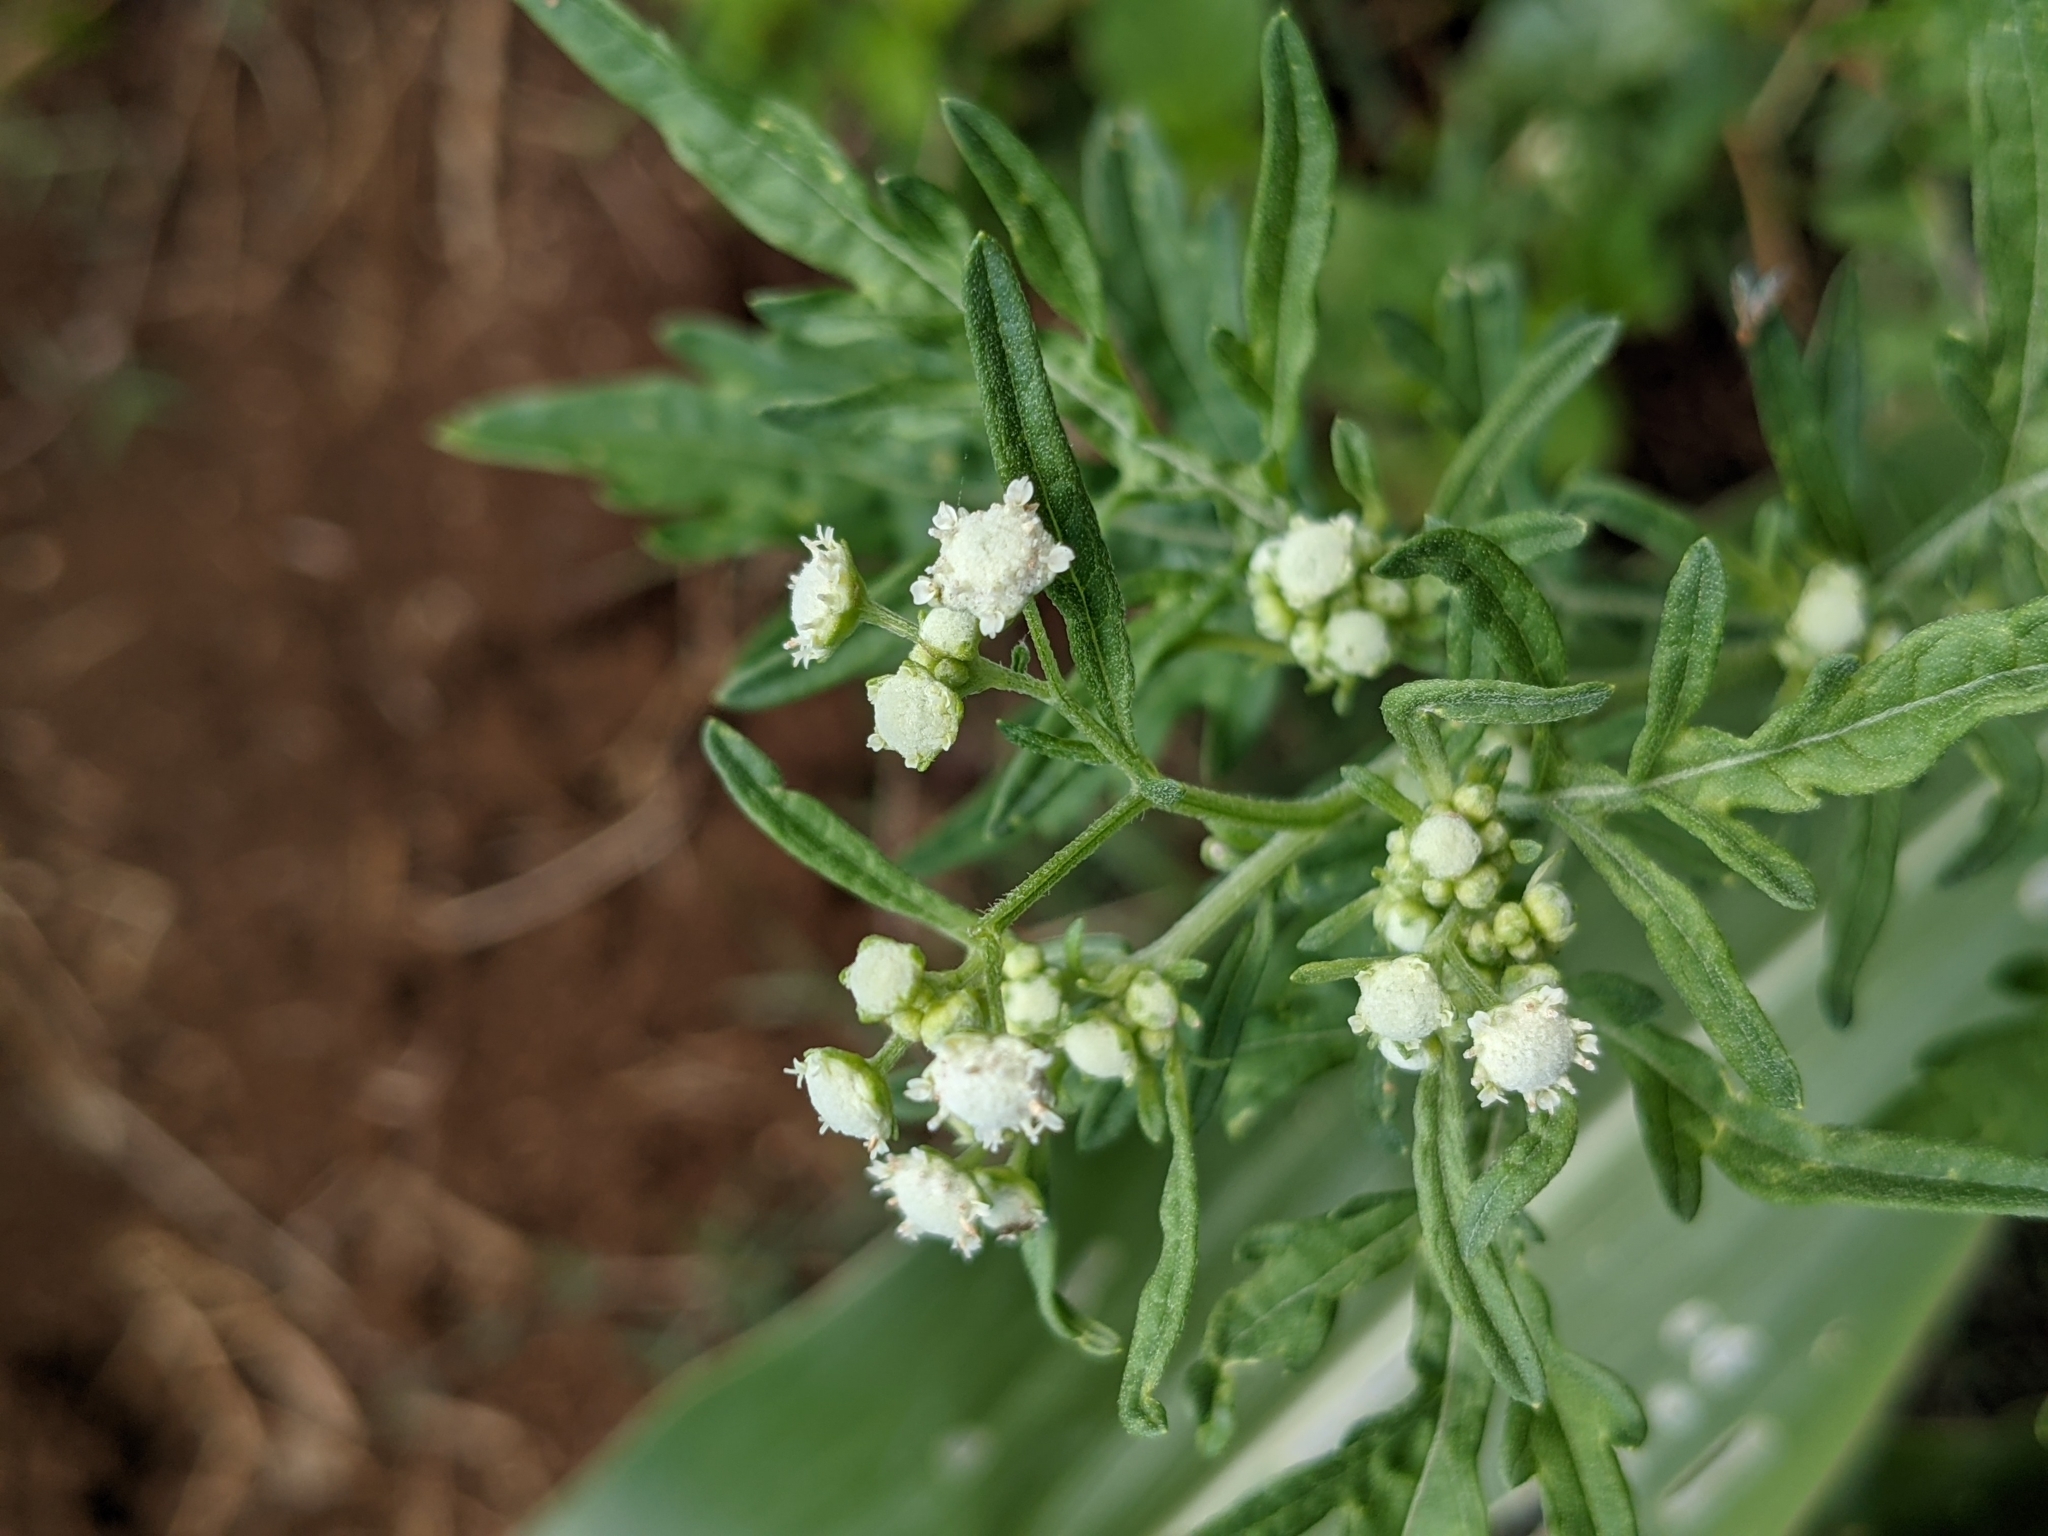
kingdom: Plantae
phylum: Tracheophyta
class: Magnoliopsida
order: Asterales
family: Asteraceae
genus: Parthenium
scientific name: Parthenium hysterophorus
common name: Santa maria feverfew
